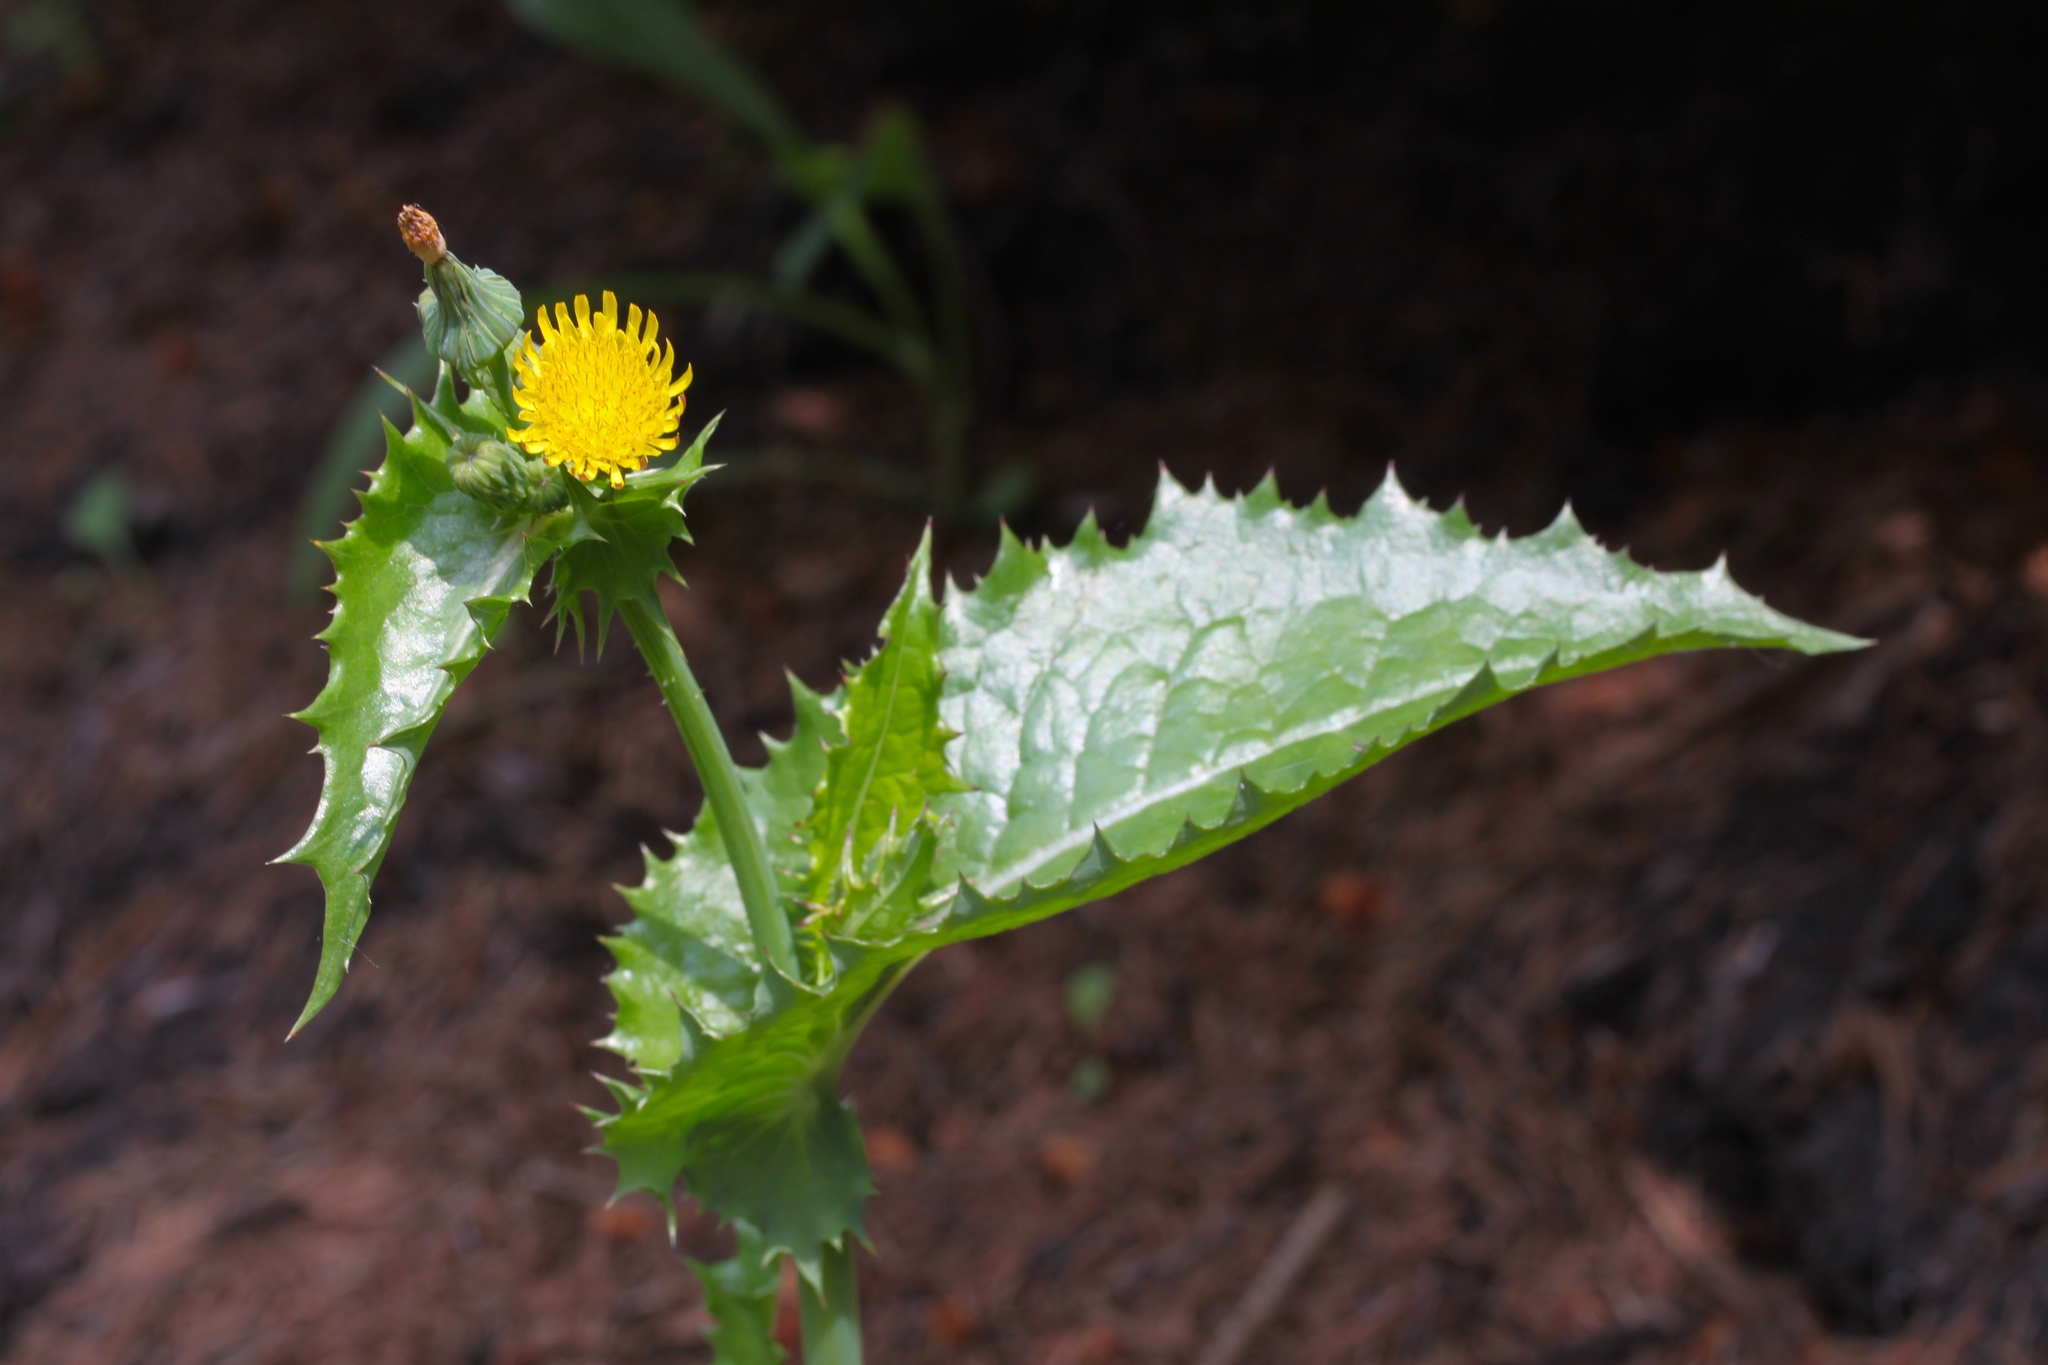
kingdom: Plantae
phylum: Tracheophyta
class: Magnoliopsida
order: Asterales
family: Asteraceae
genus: Sonchus
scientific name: Sonchus asper
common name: Prickly sow-thistle
